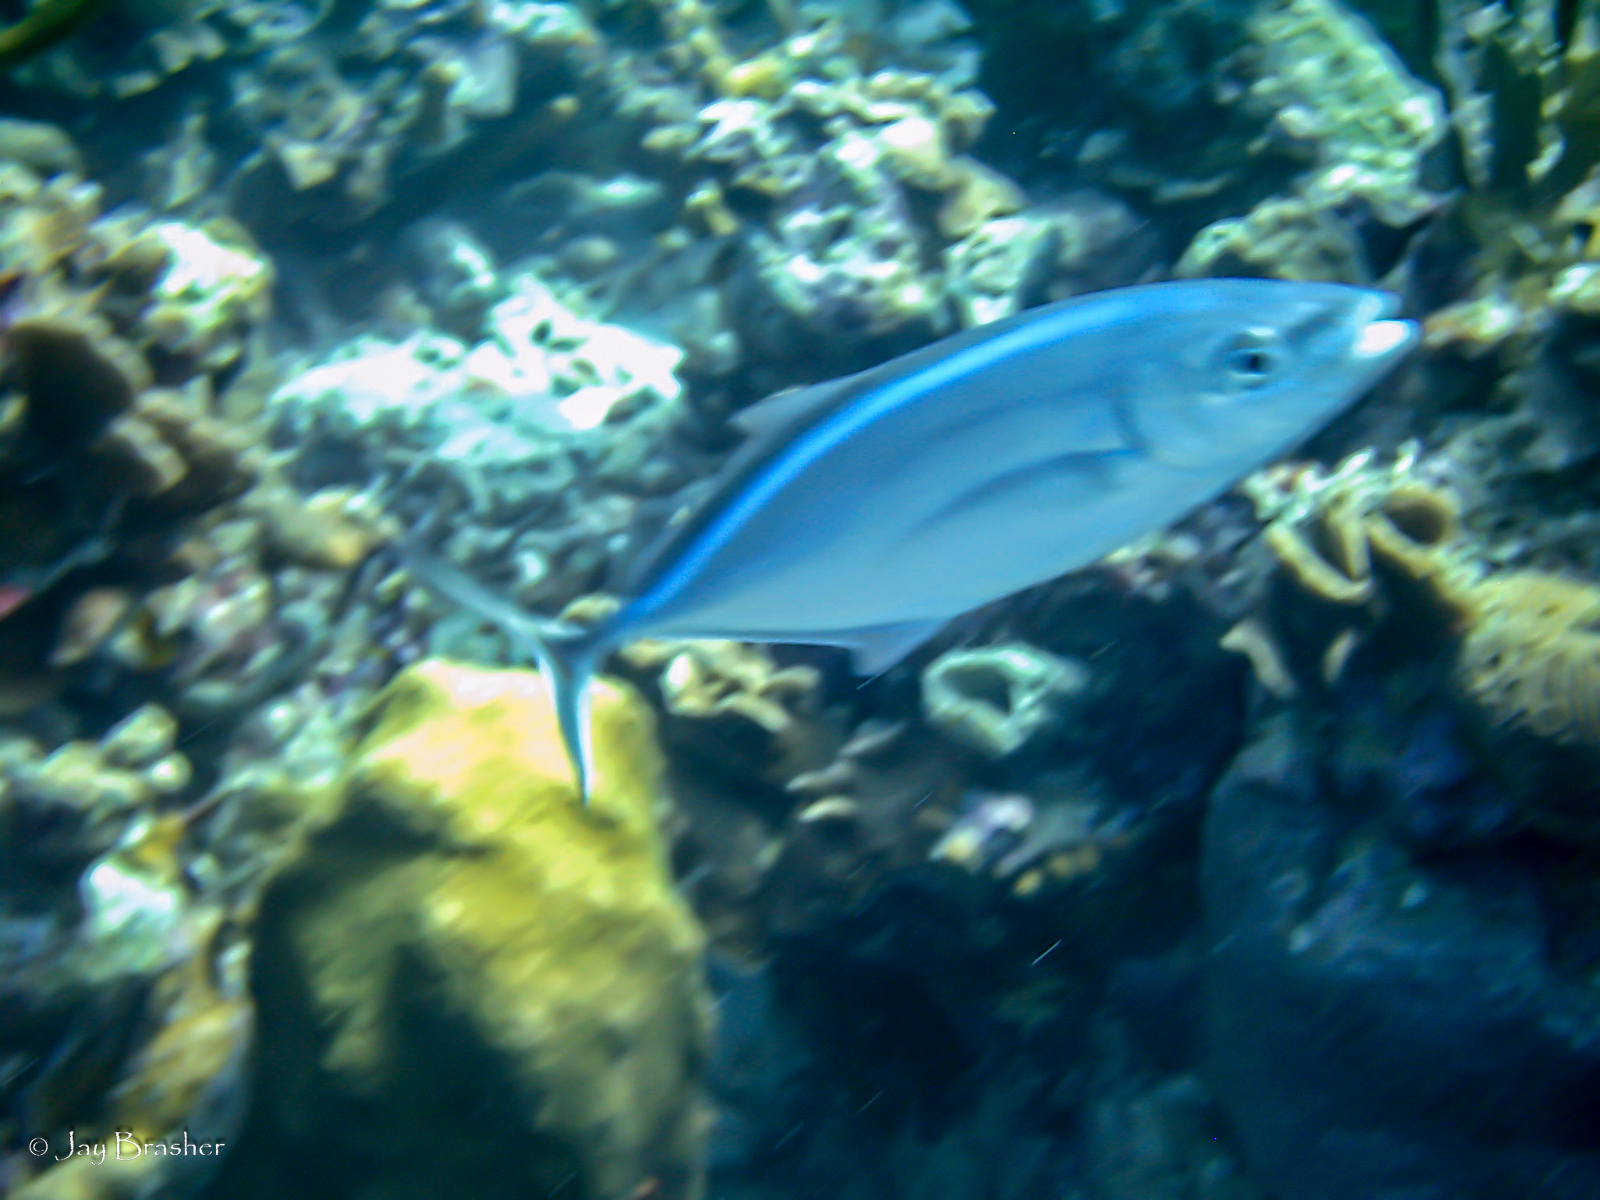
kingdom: Animalia
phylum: Chordata
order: Perciformes
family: Carangidae
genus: Caranx
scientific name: Caranx ruber
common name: Bar jack
